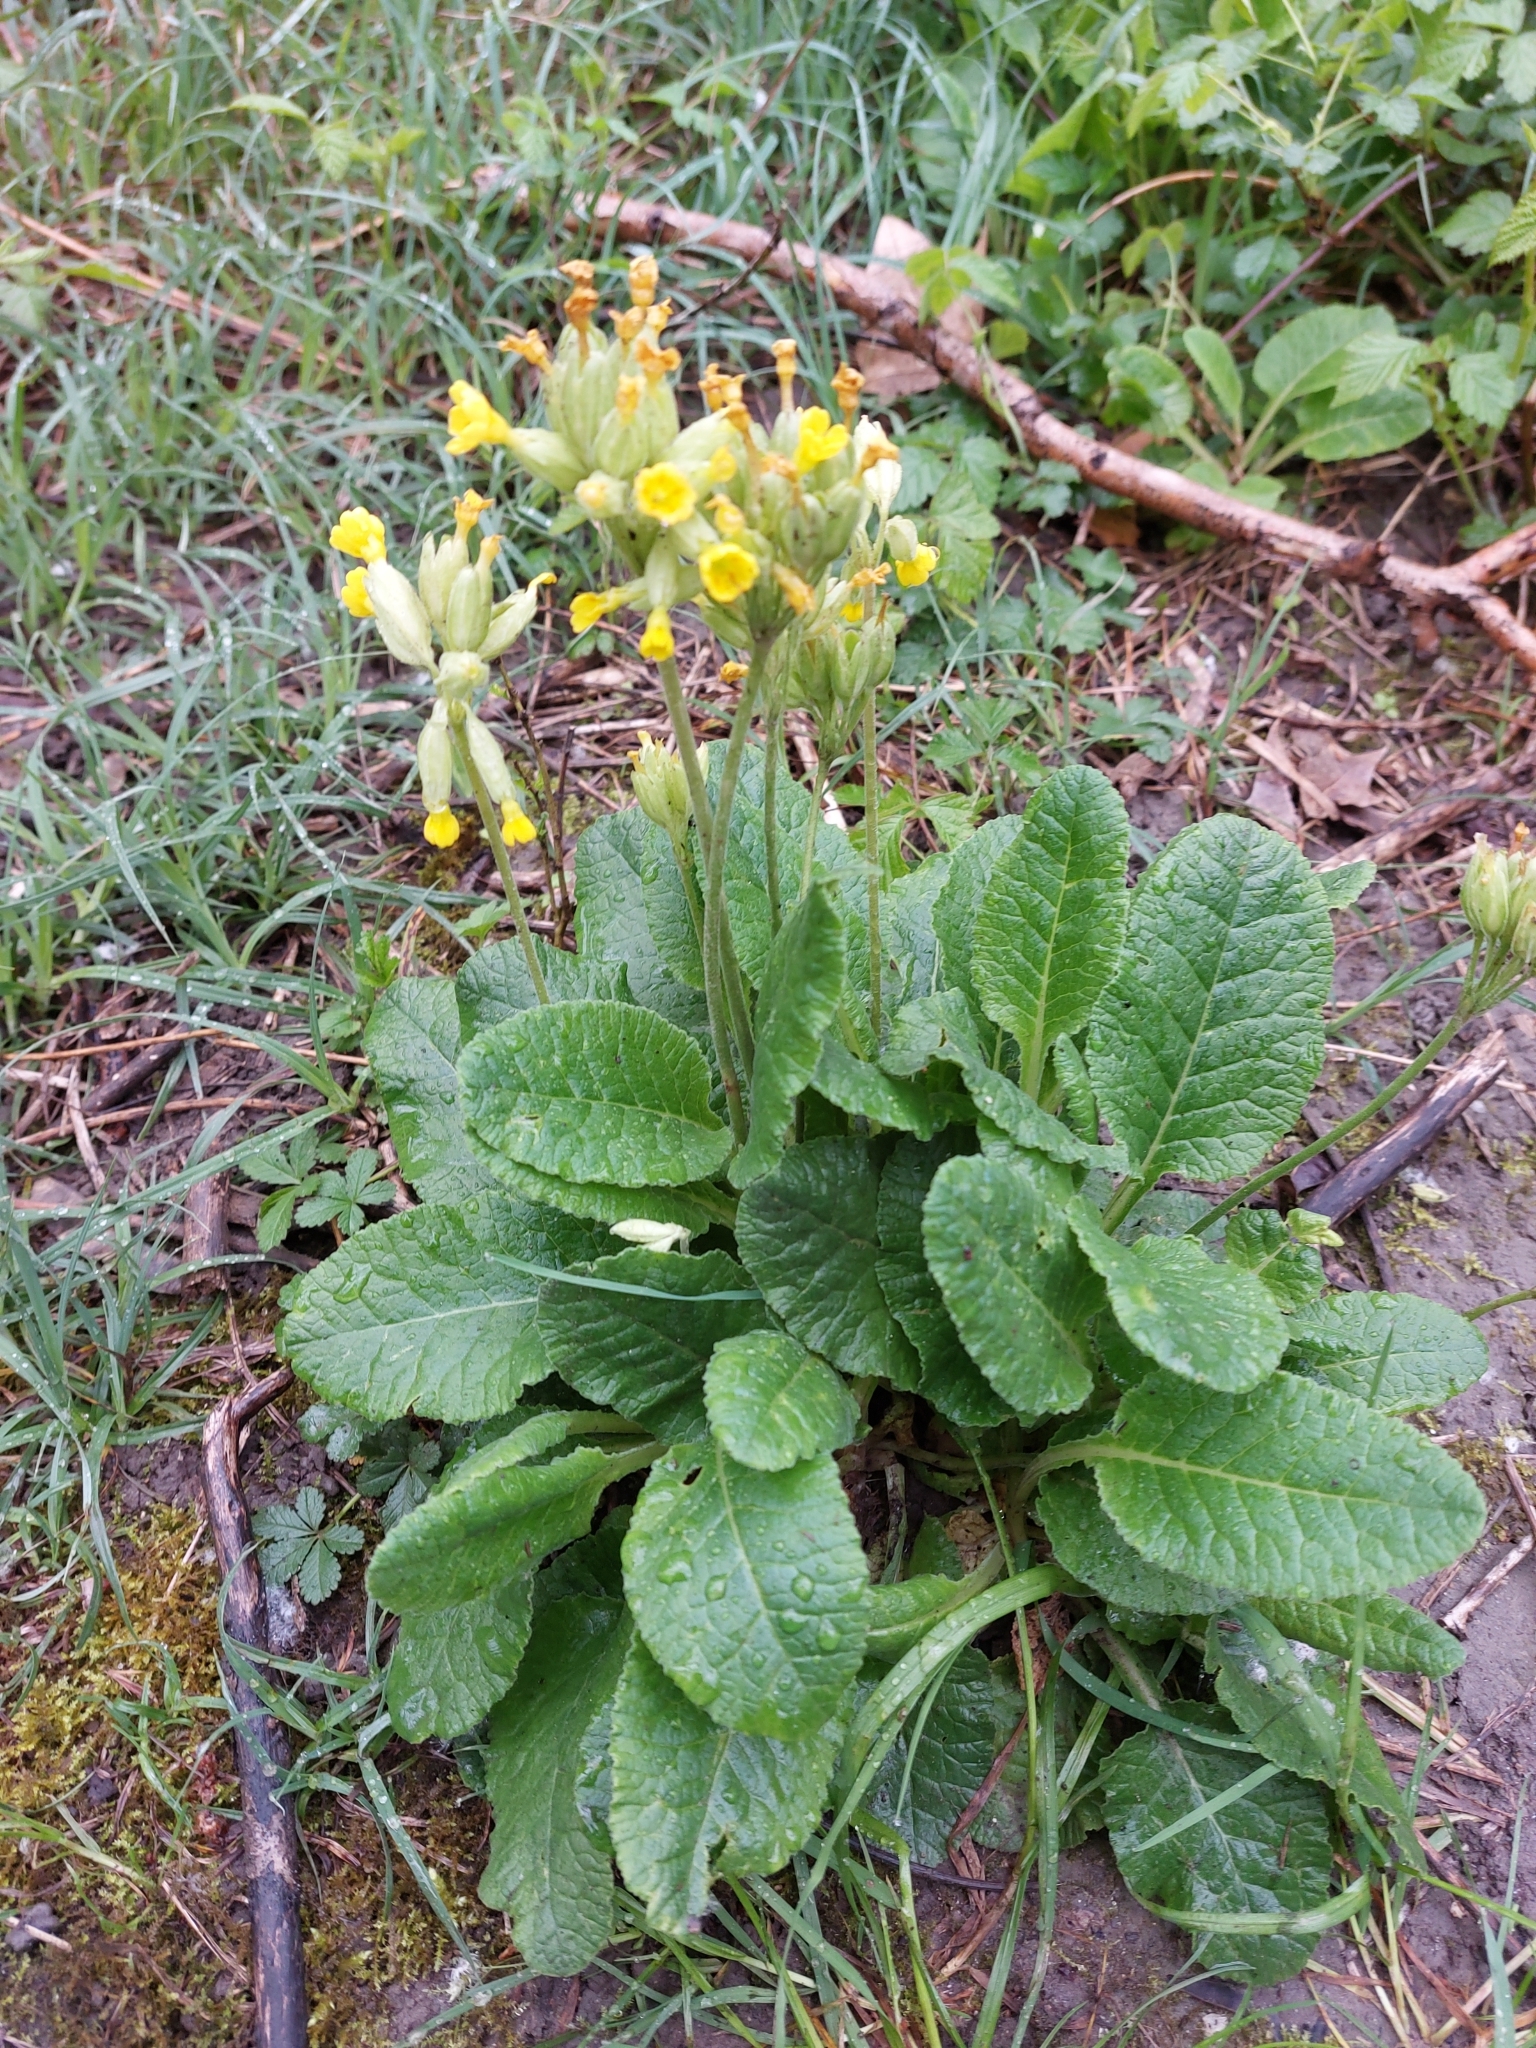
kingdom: Plantae
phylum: Tracheophyta
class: Magnoliopsida
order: Ericales
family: Primulaceae
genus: Primula
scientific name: Primula veris
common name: Cowslip
